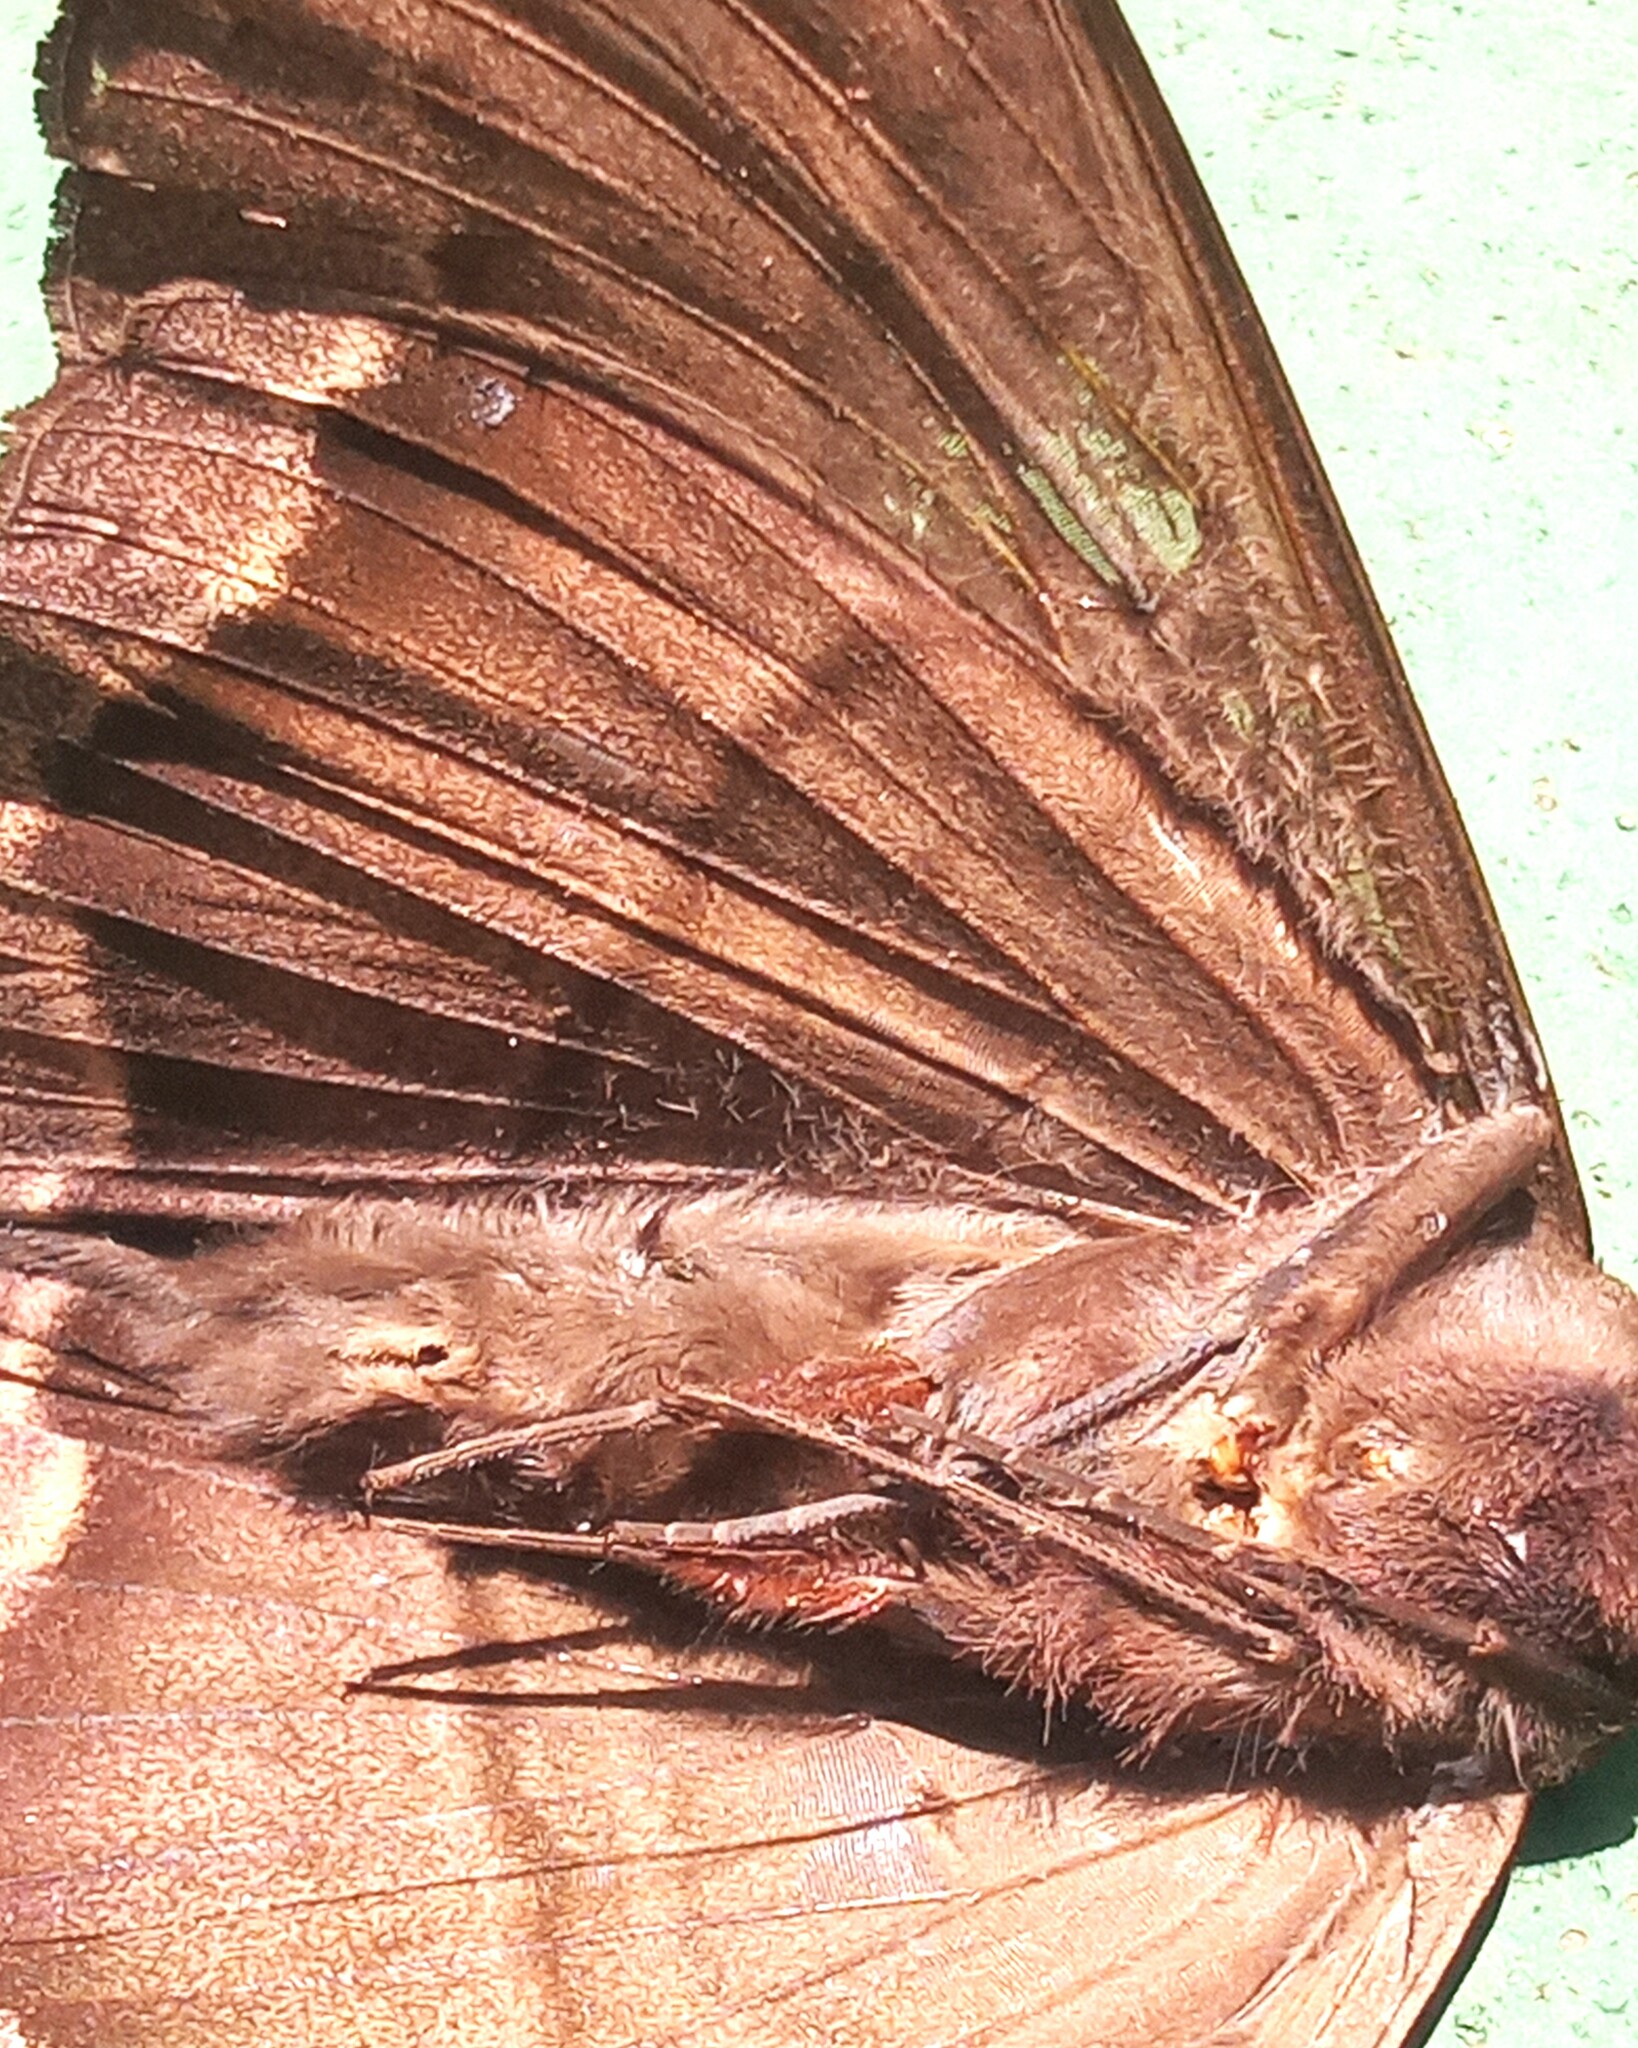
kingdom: Animalia
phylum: Arthropoda
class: Insecta
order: Lepidoptera
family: Erebidae
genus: Ascalapha
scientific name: Ascalapha odorata
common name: Black witch
